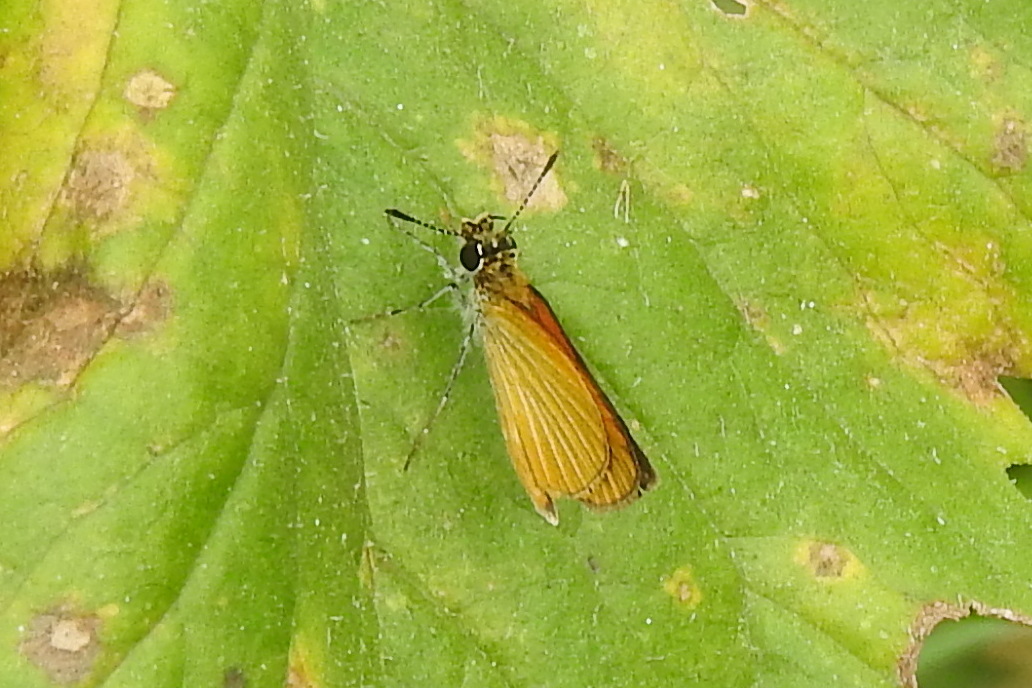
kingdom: Animalia
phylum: Arthropoda
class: Insecta
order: Lepidoptera
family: Hesperiidae
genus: Ancyloxypha
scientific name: Ancyloxypha numitor
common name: Least skipper
